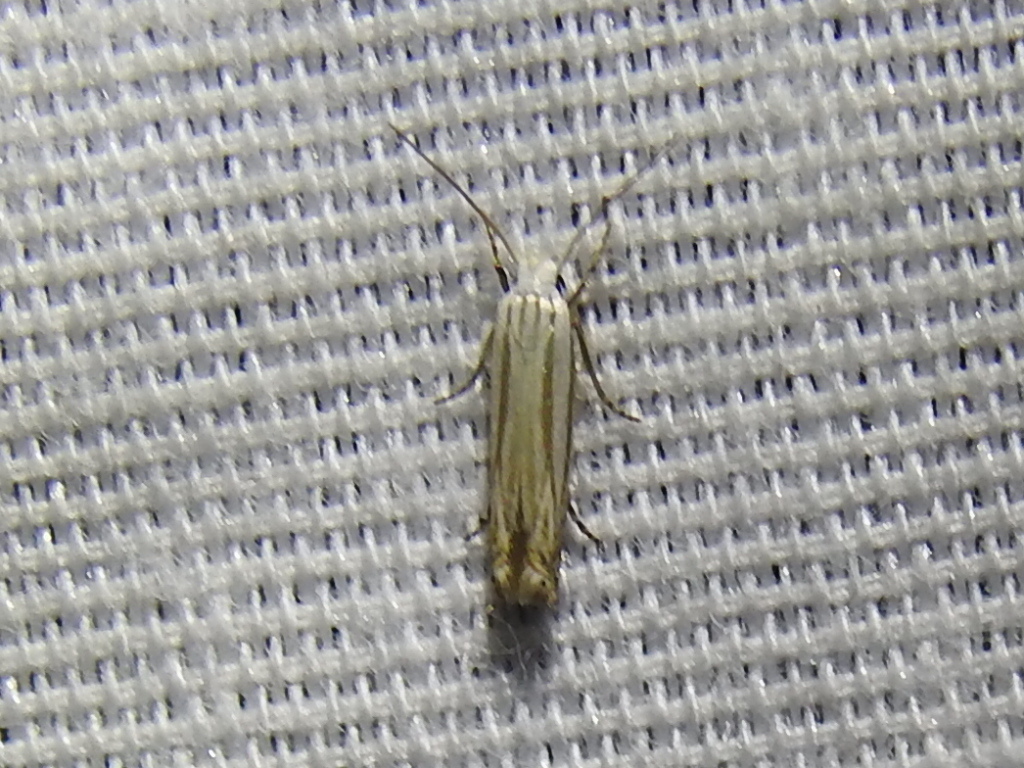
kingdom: Animalia
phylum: Arthropoda
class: Insecta
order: Lepidoptera
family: Gelechiidae
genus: Polyhymno
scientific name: Polyhymno luteostrigella
